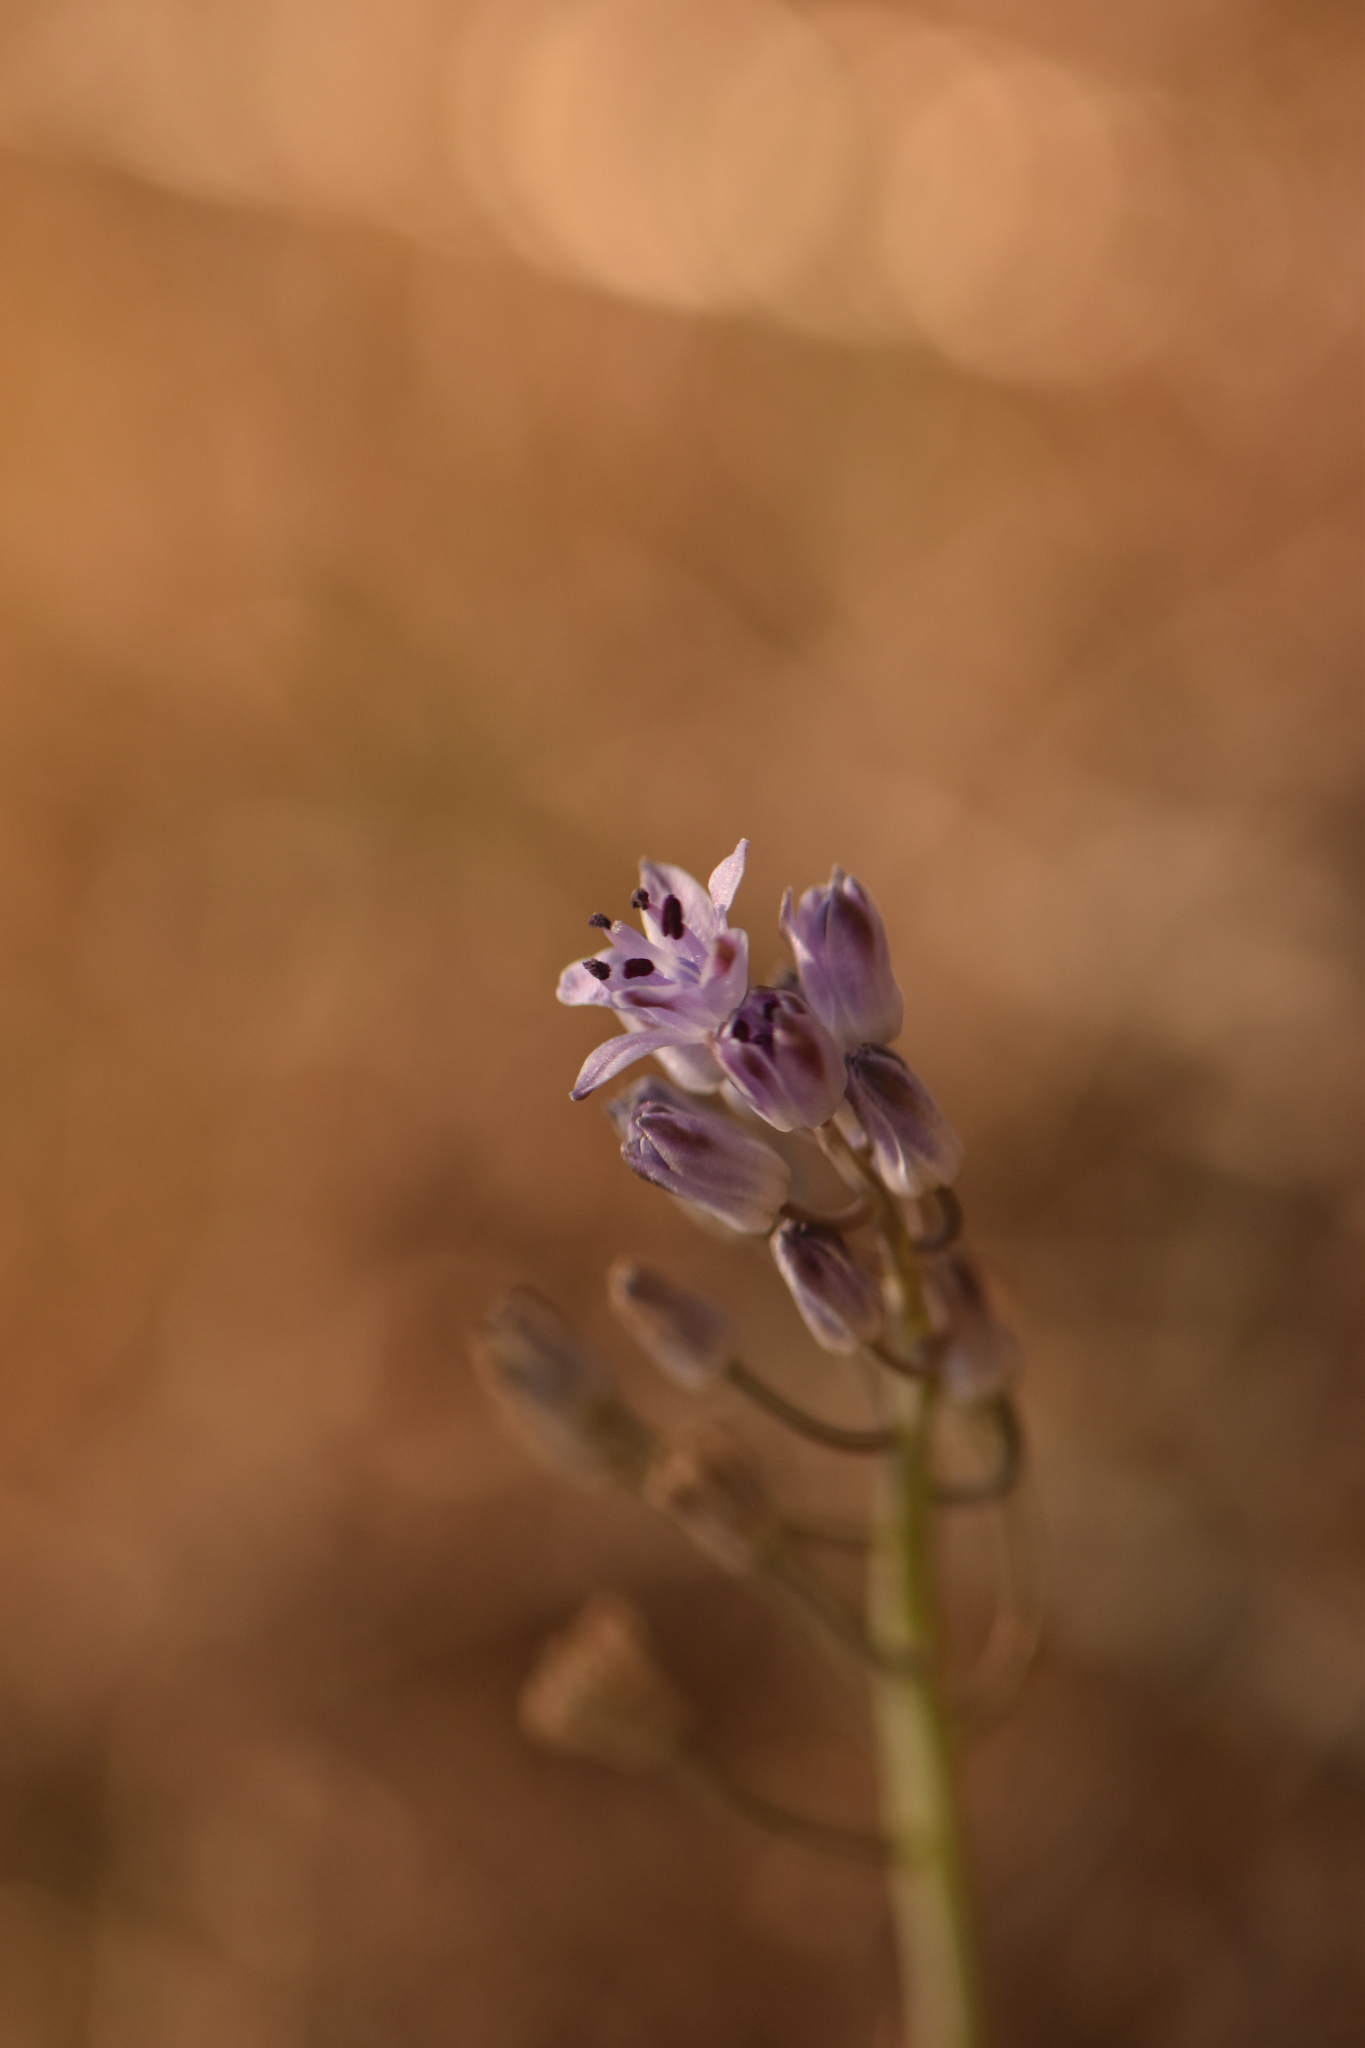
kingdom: Plantae
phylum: Tracheophyta
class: Liliopsida
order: Asparagales
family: Asparagaceae
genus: Prospero
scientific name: Prospero autumnale
